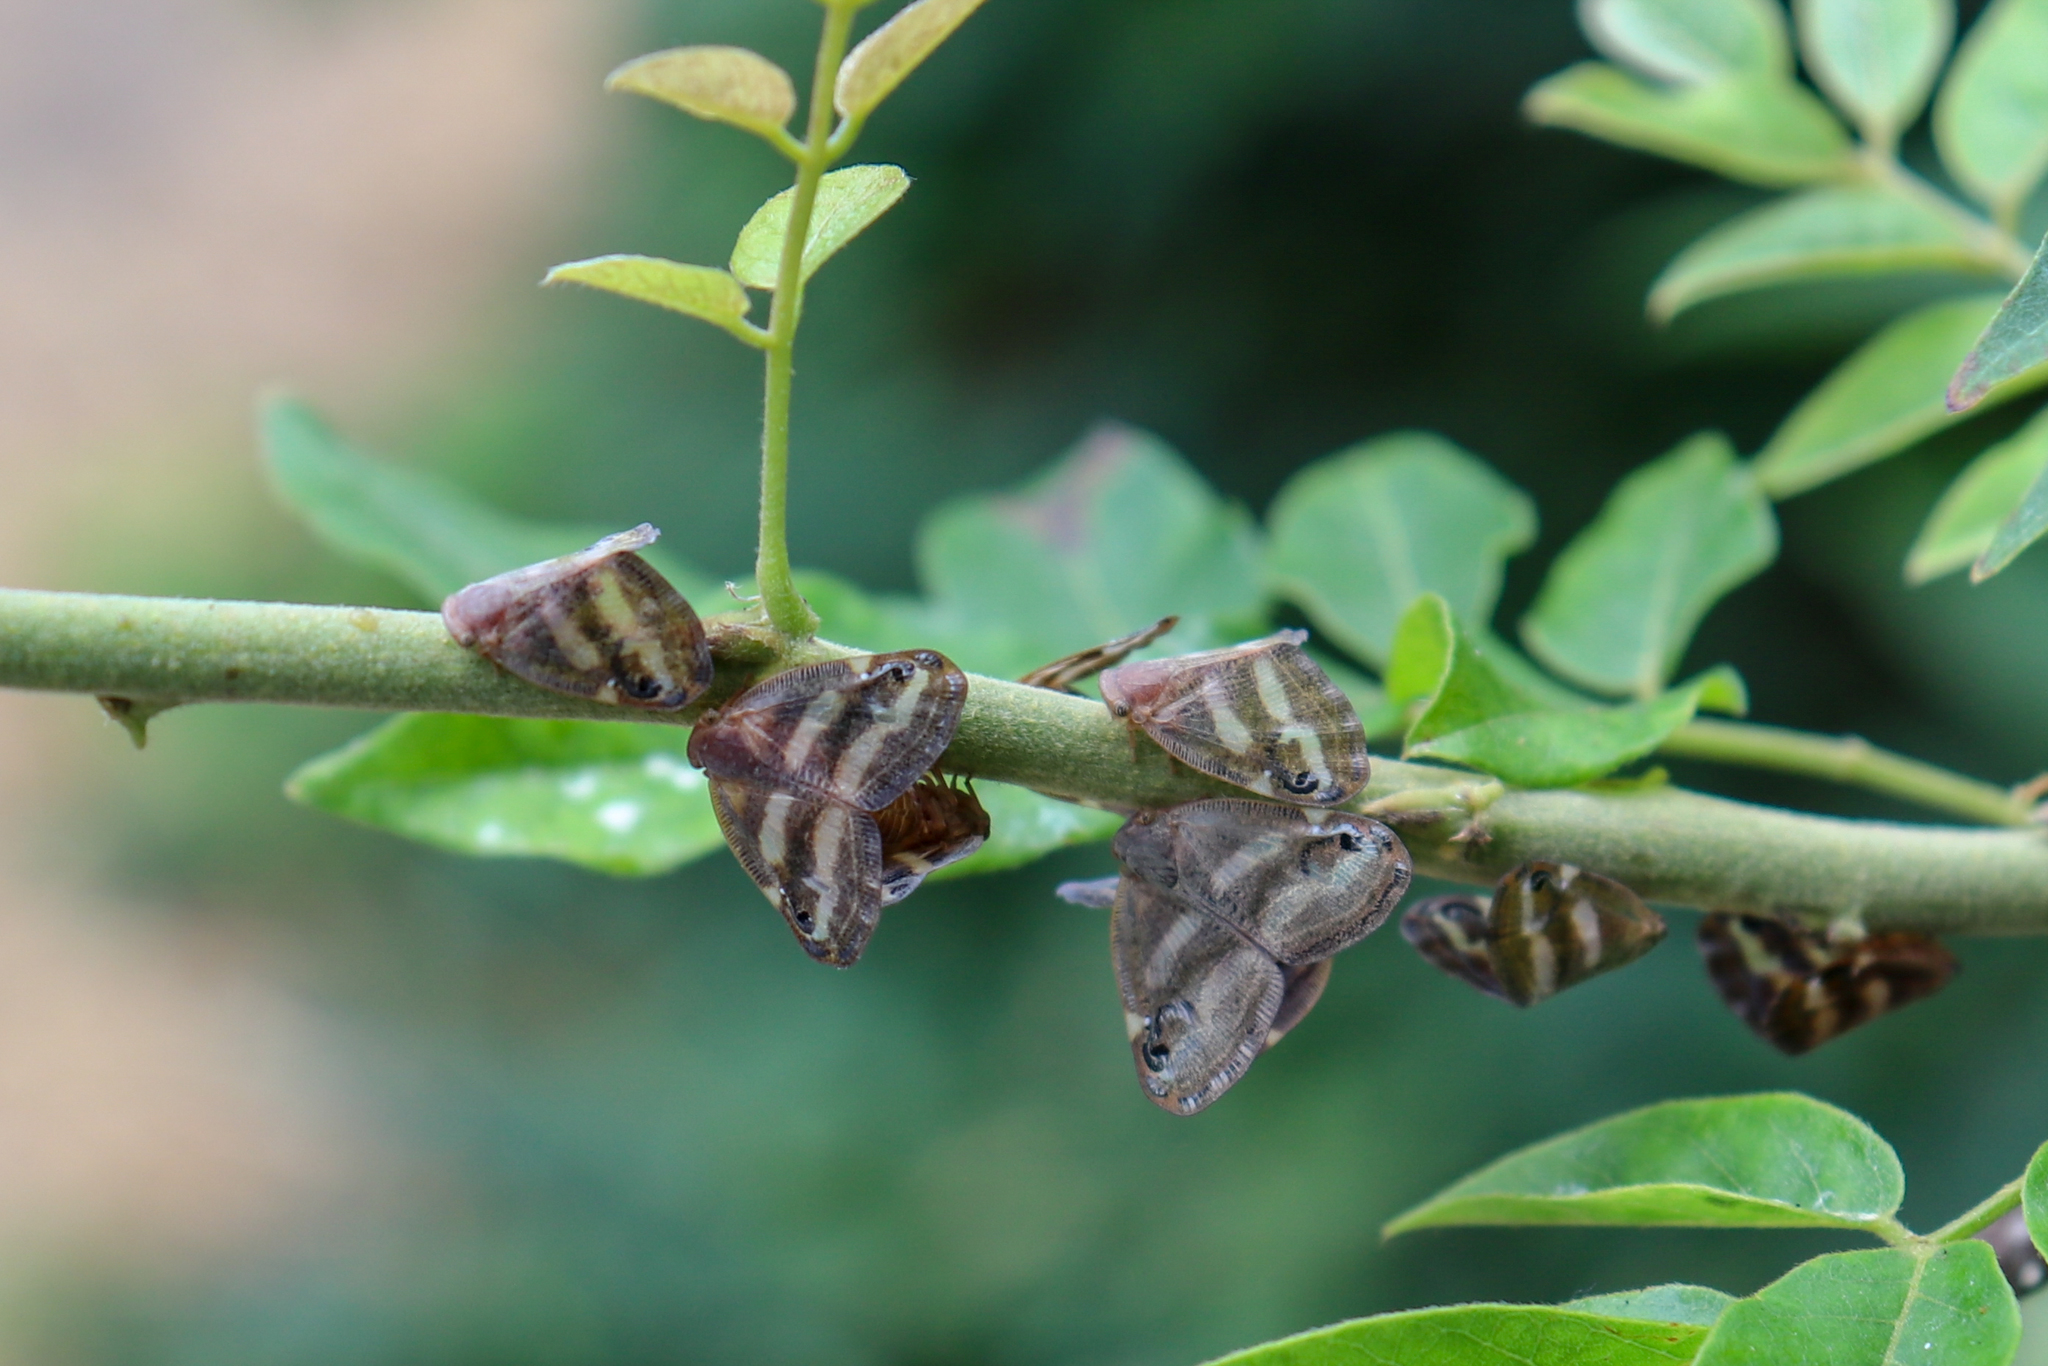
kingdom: Animalia
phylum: Arthropoda
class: Insecta
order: Hemiptera
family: Ricaniidae
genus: Orosanga
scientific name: Orosanga japonica
